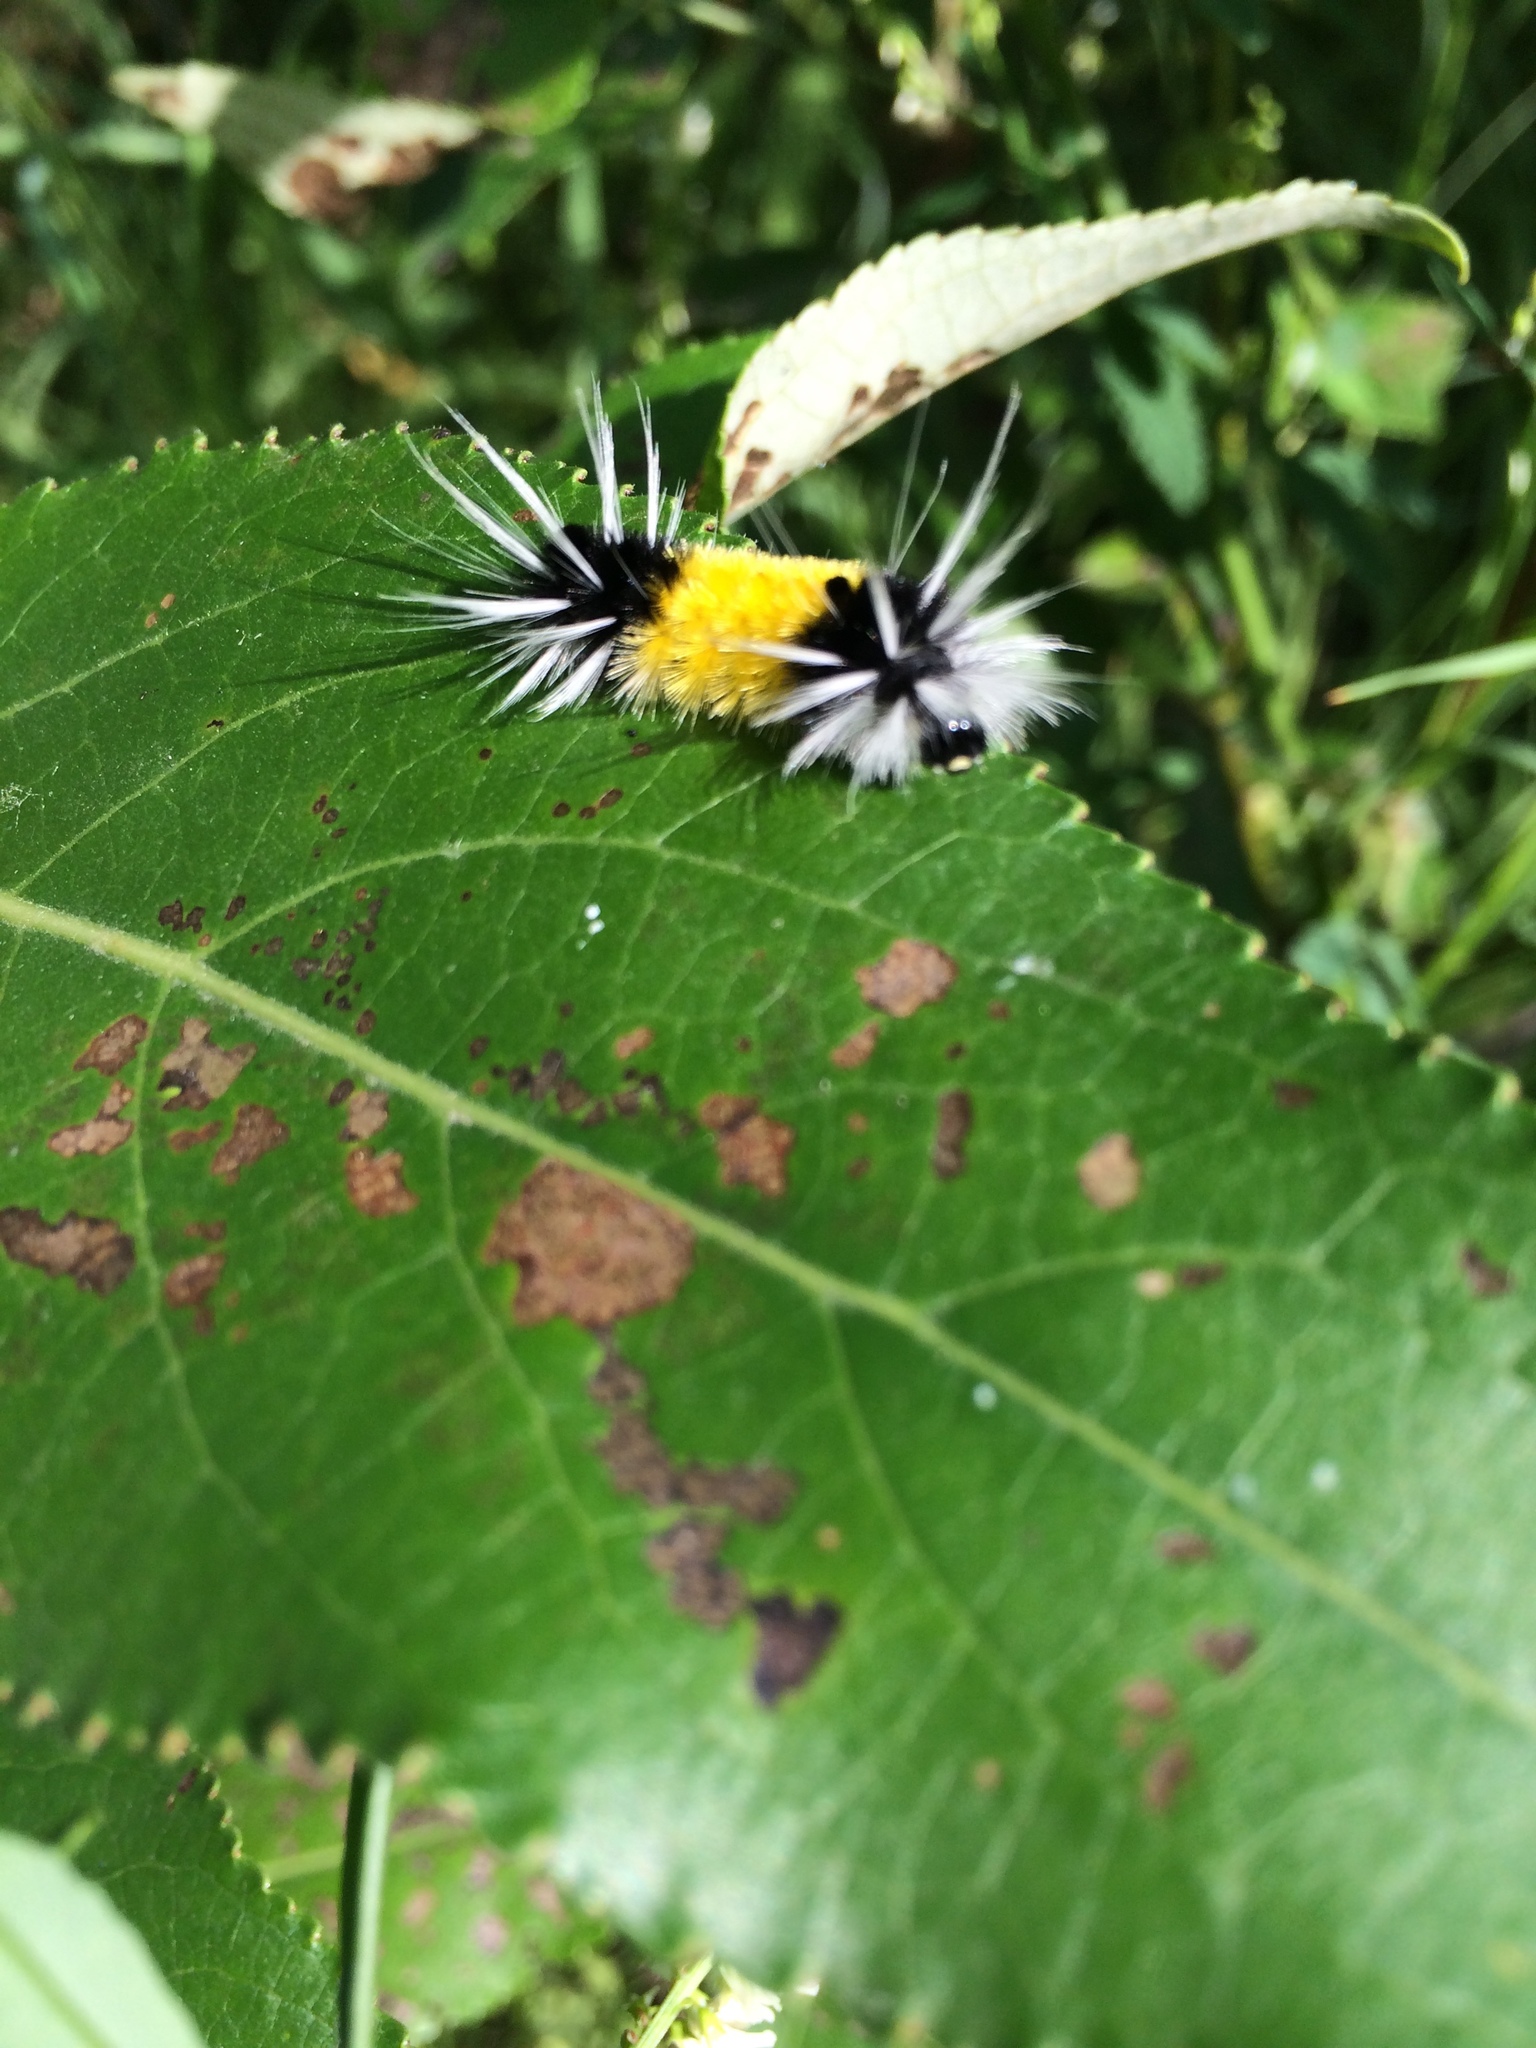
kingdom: Animalia
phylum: Arthropoda
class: Insecta
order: Lepidoptera
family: Erebidae
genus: Lophocampa
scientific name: Lophocampa maculata
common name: Spotted tussock moth
